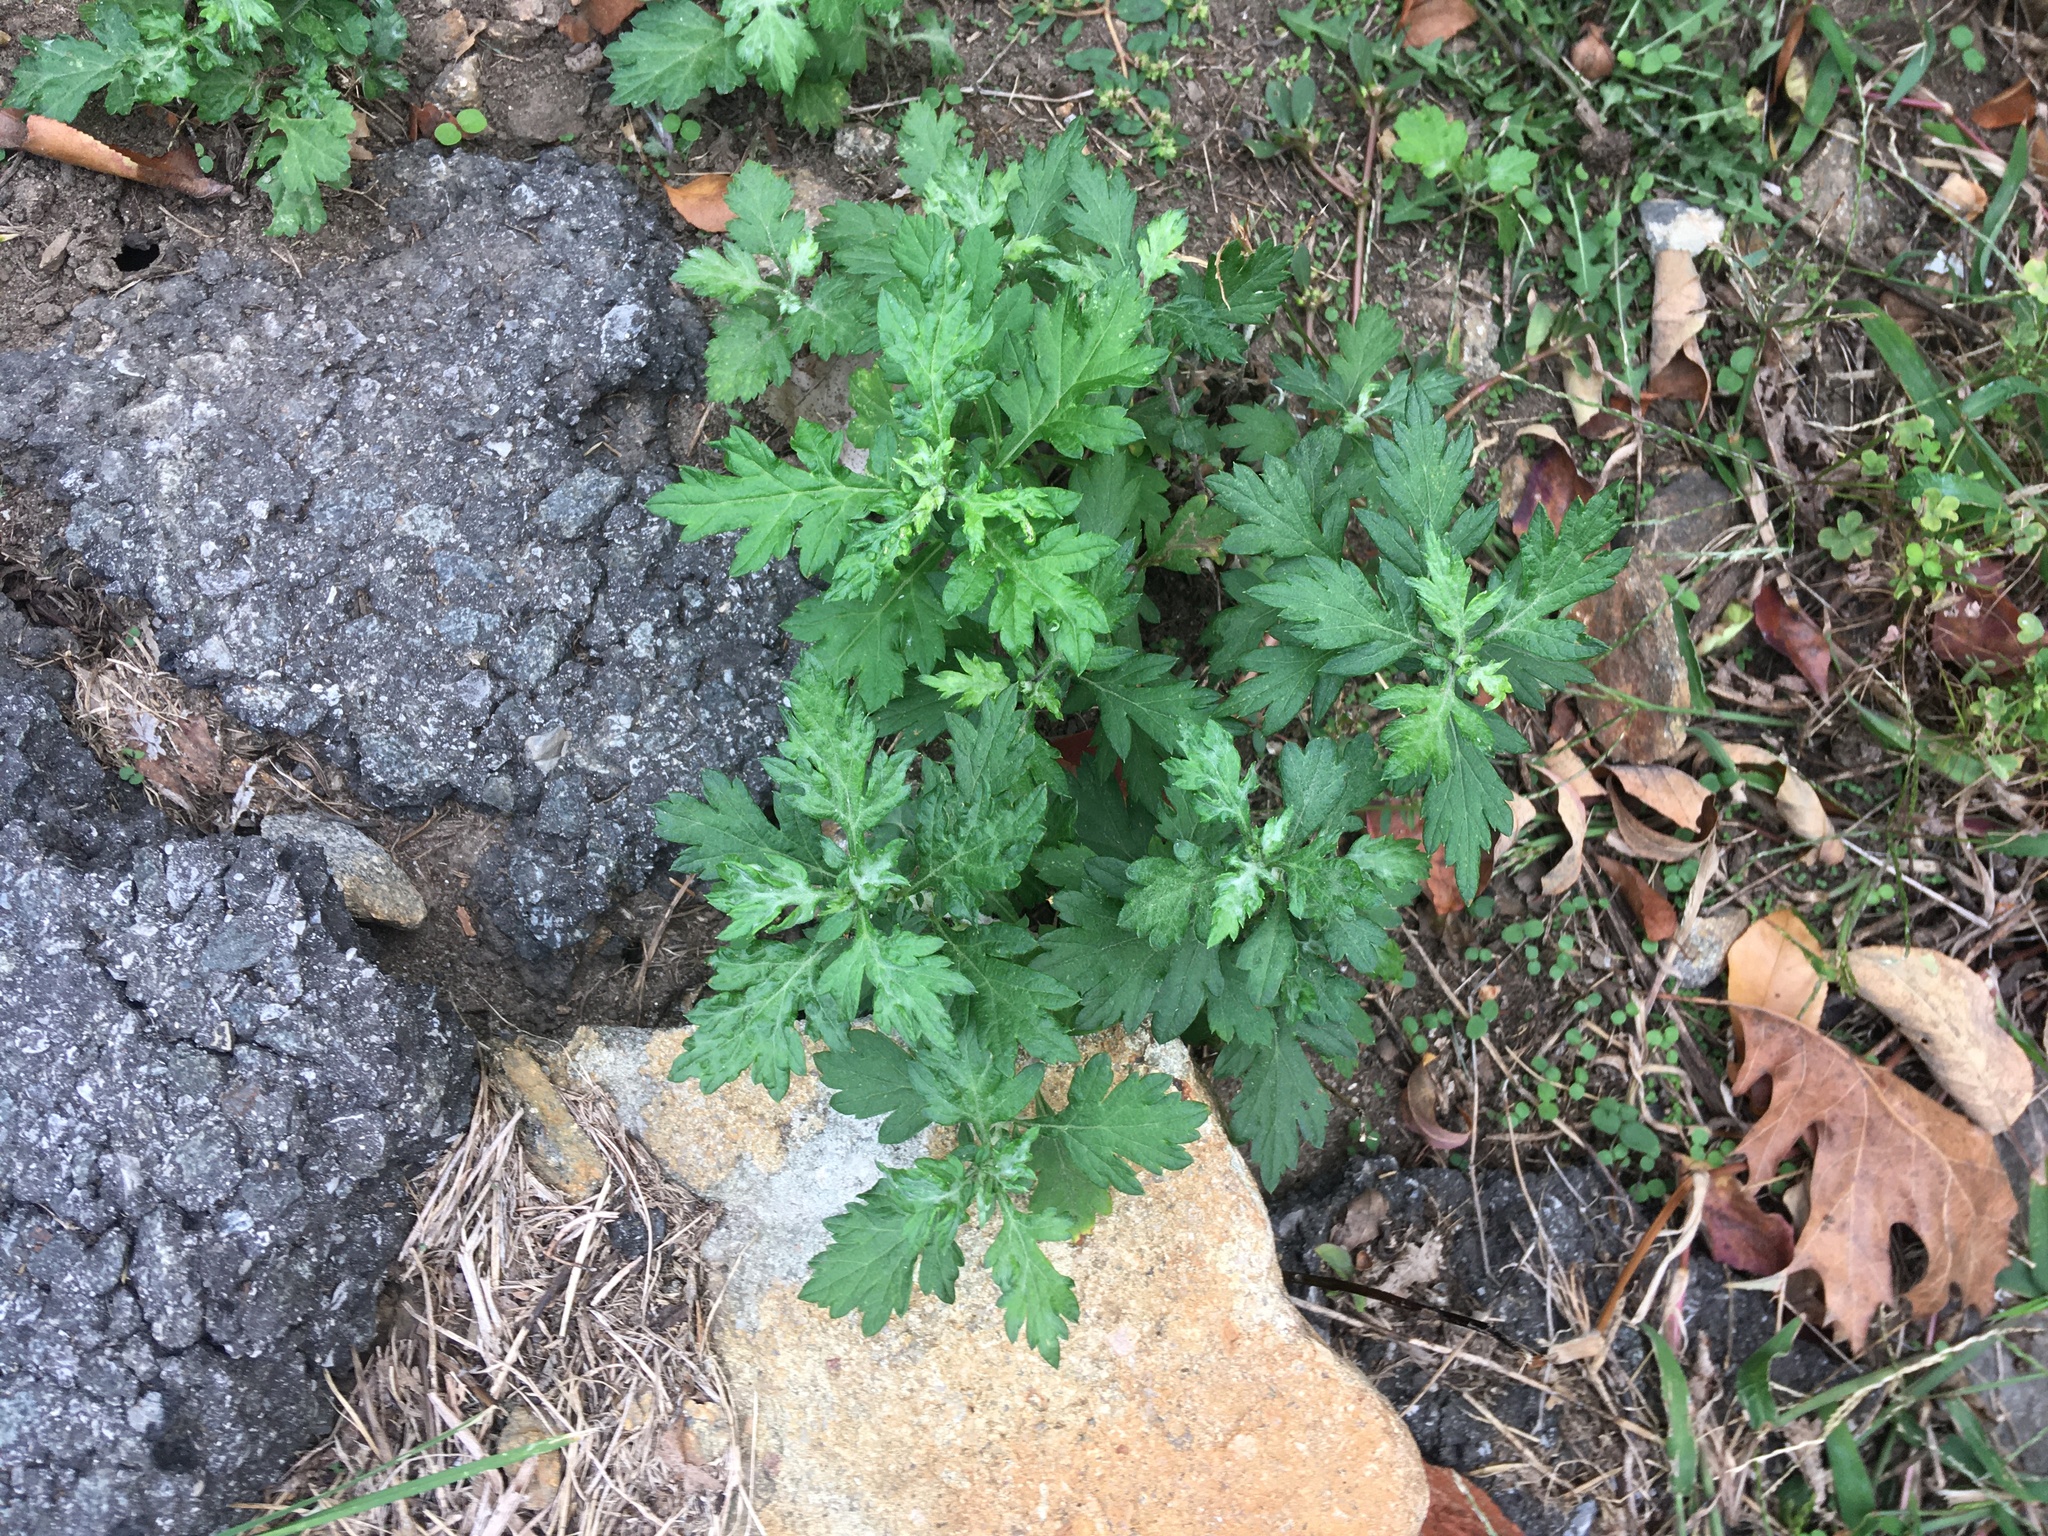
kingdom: Plantae
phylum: Tracheophyta
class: Magnoliopsida
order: Asterales
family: Asteraceae
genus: Artemisia
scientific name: Artemisia vulgaris
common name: Mugwort
